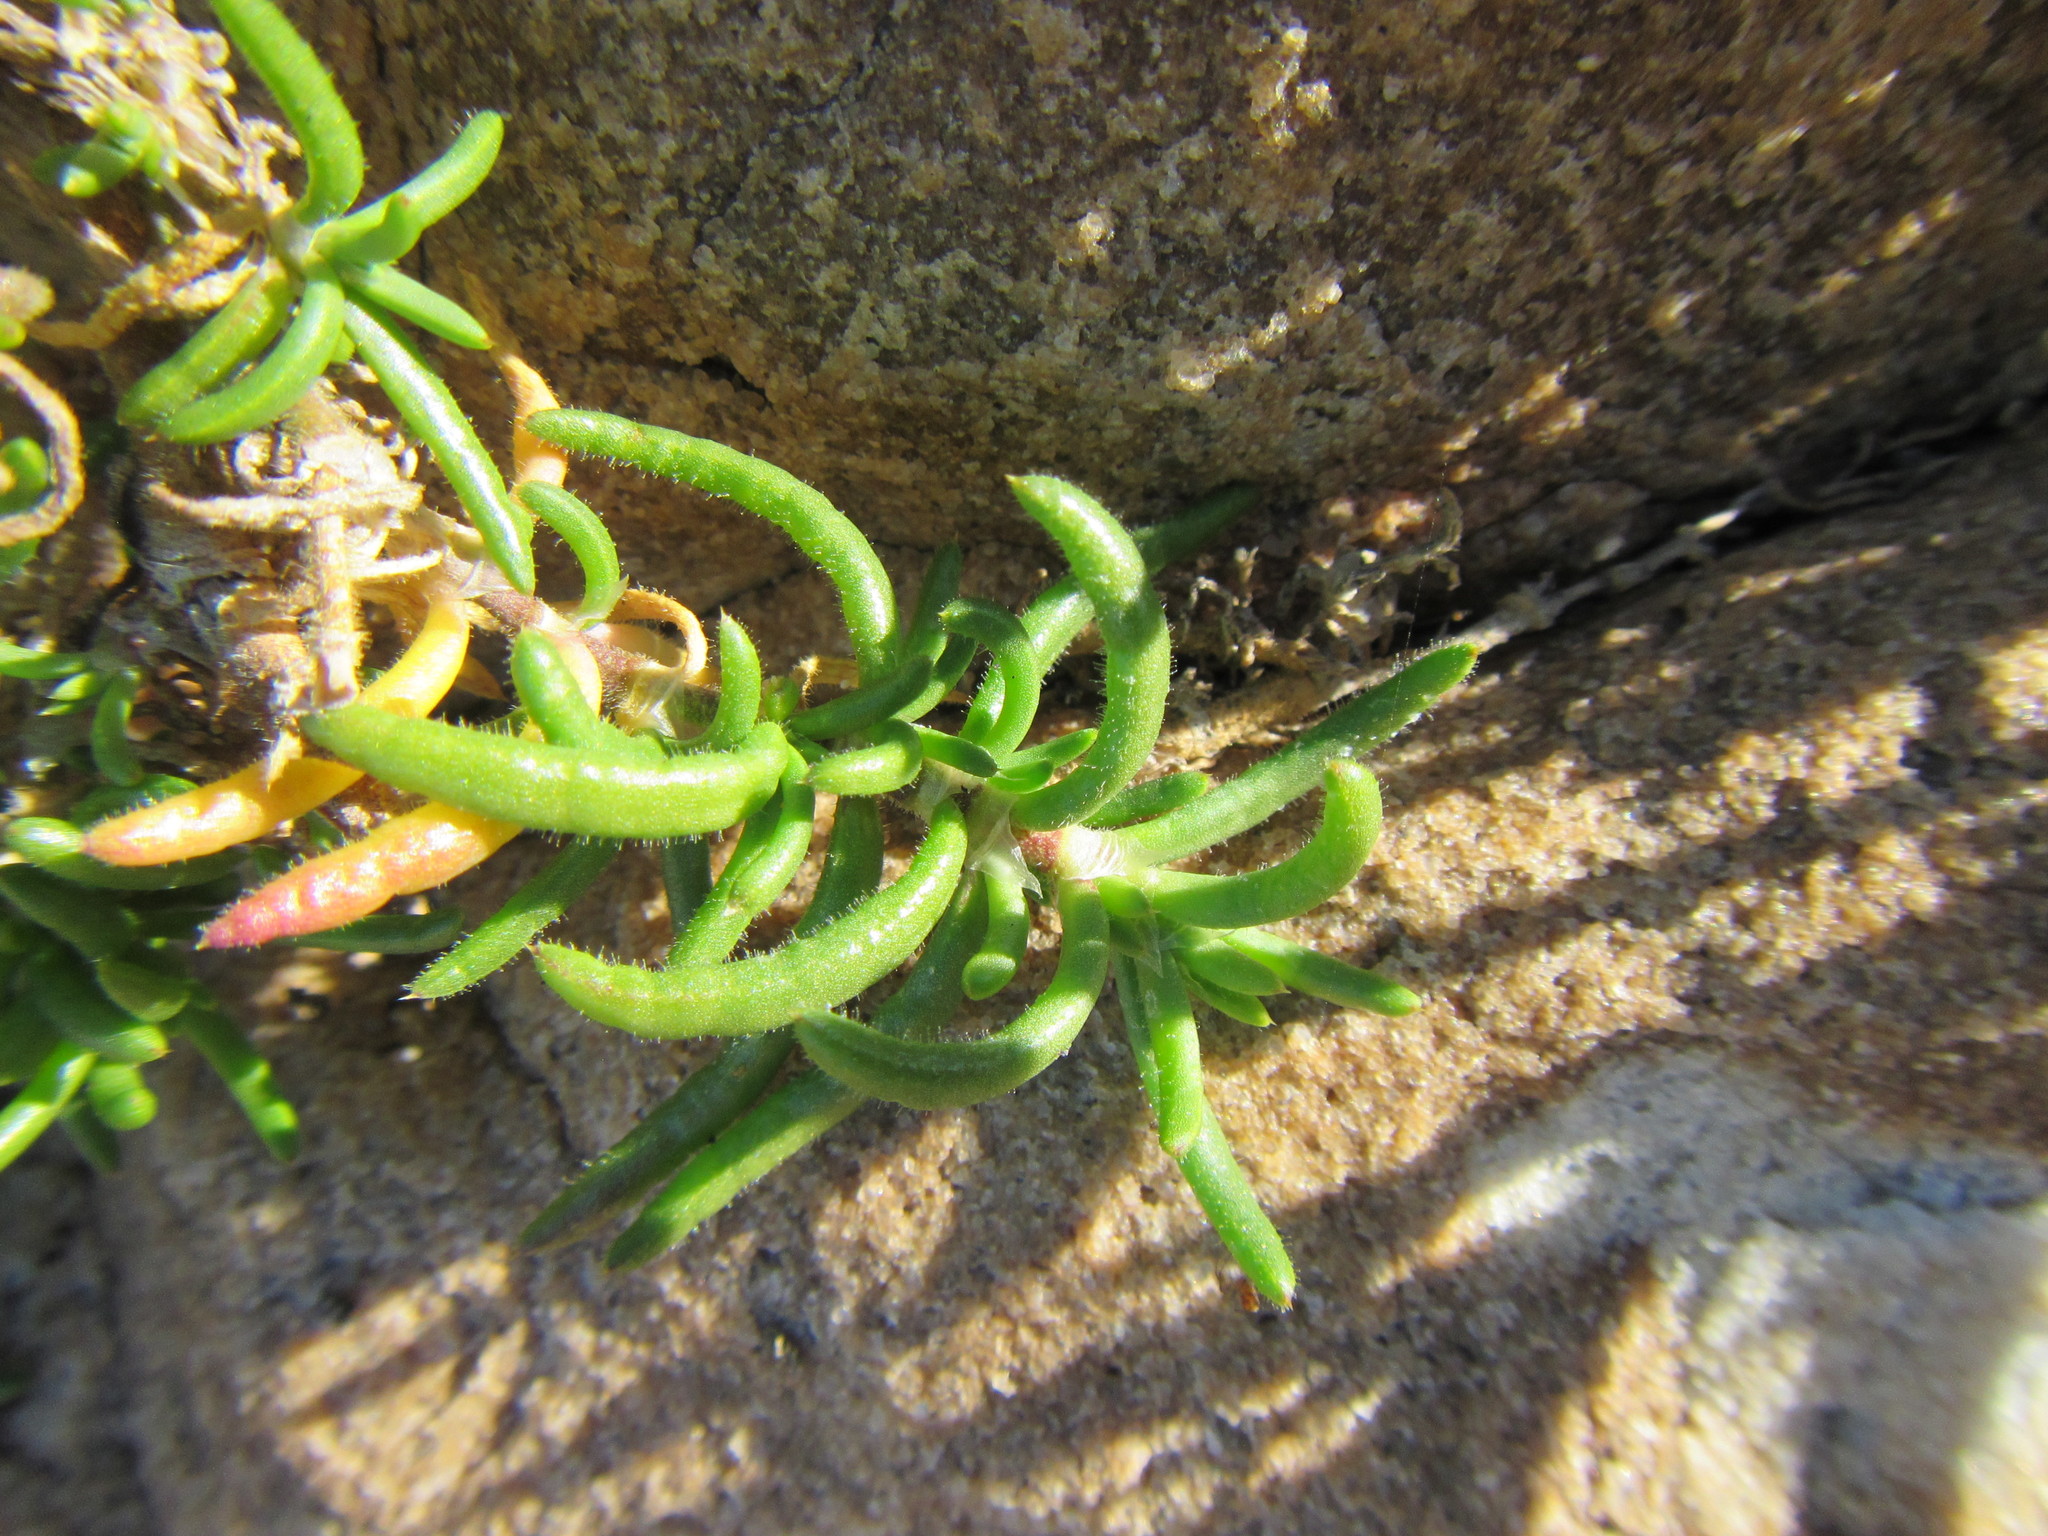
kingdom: Plantae
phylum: Tracheophyta
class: Magnoliopsida
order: Caryophyllales
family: Caryophyllaceae
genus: Spergularia
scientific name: Spergularia media
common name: Greater sea-spurrey
